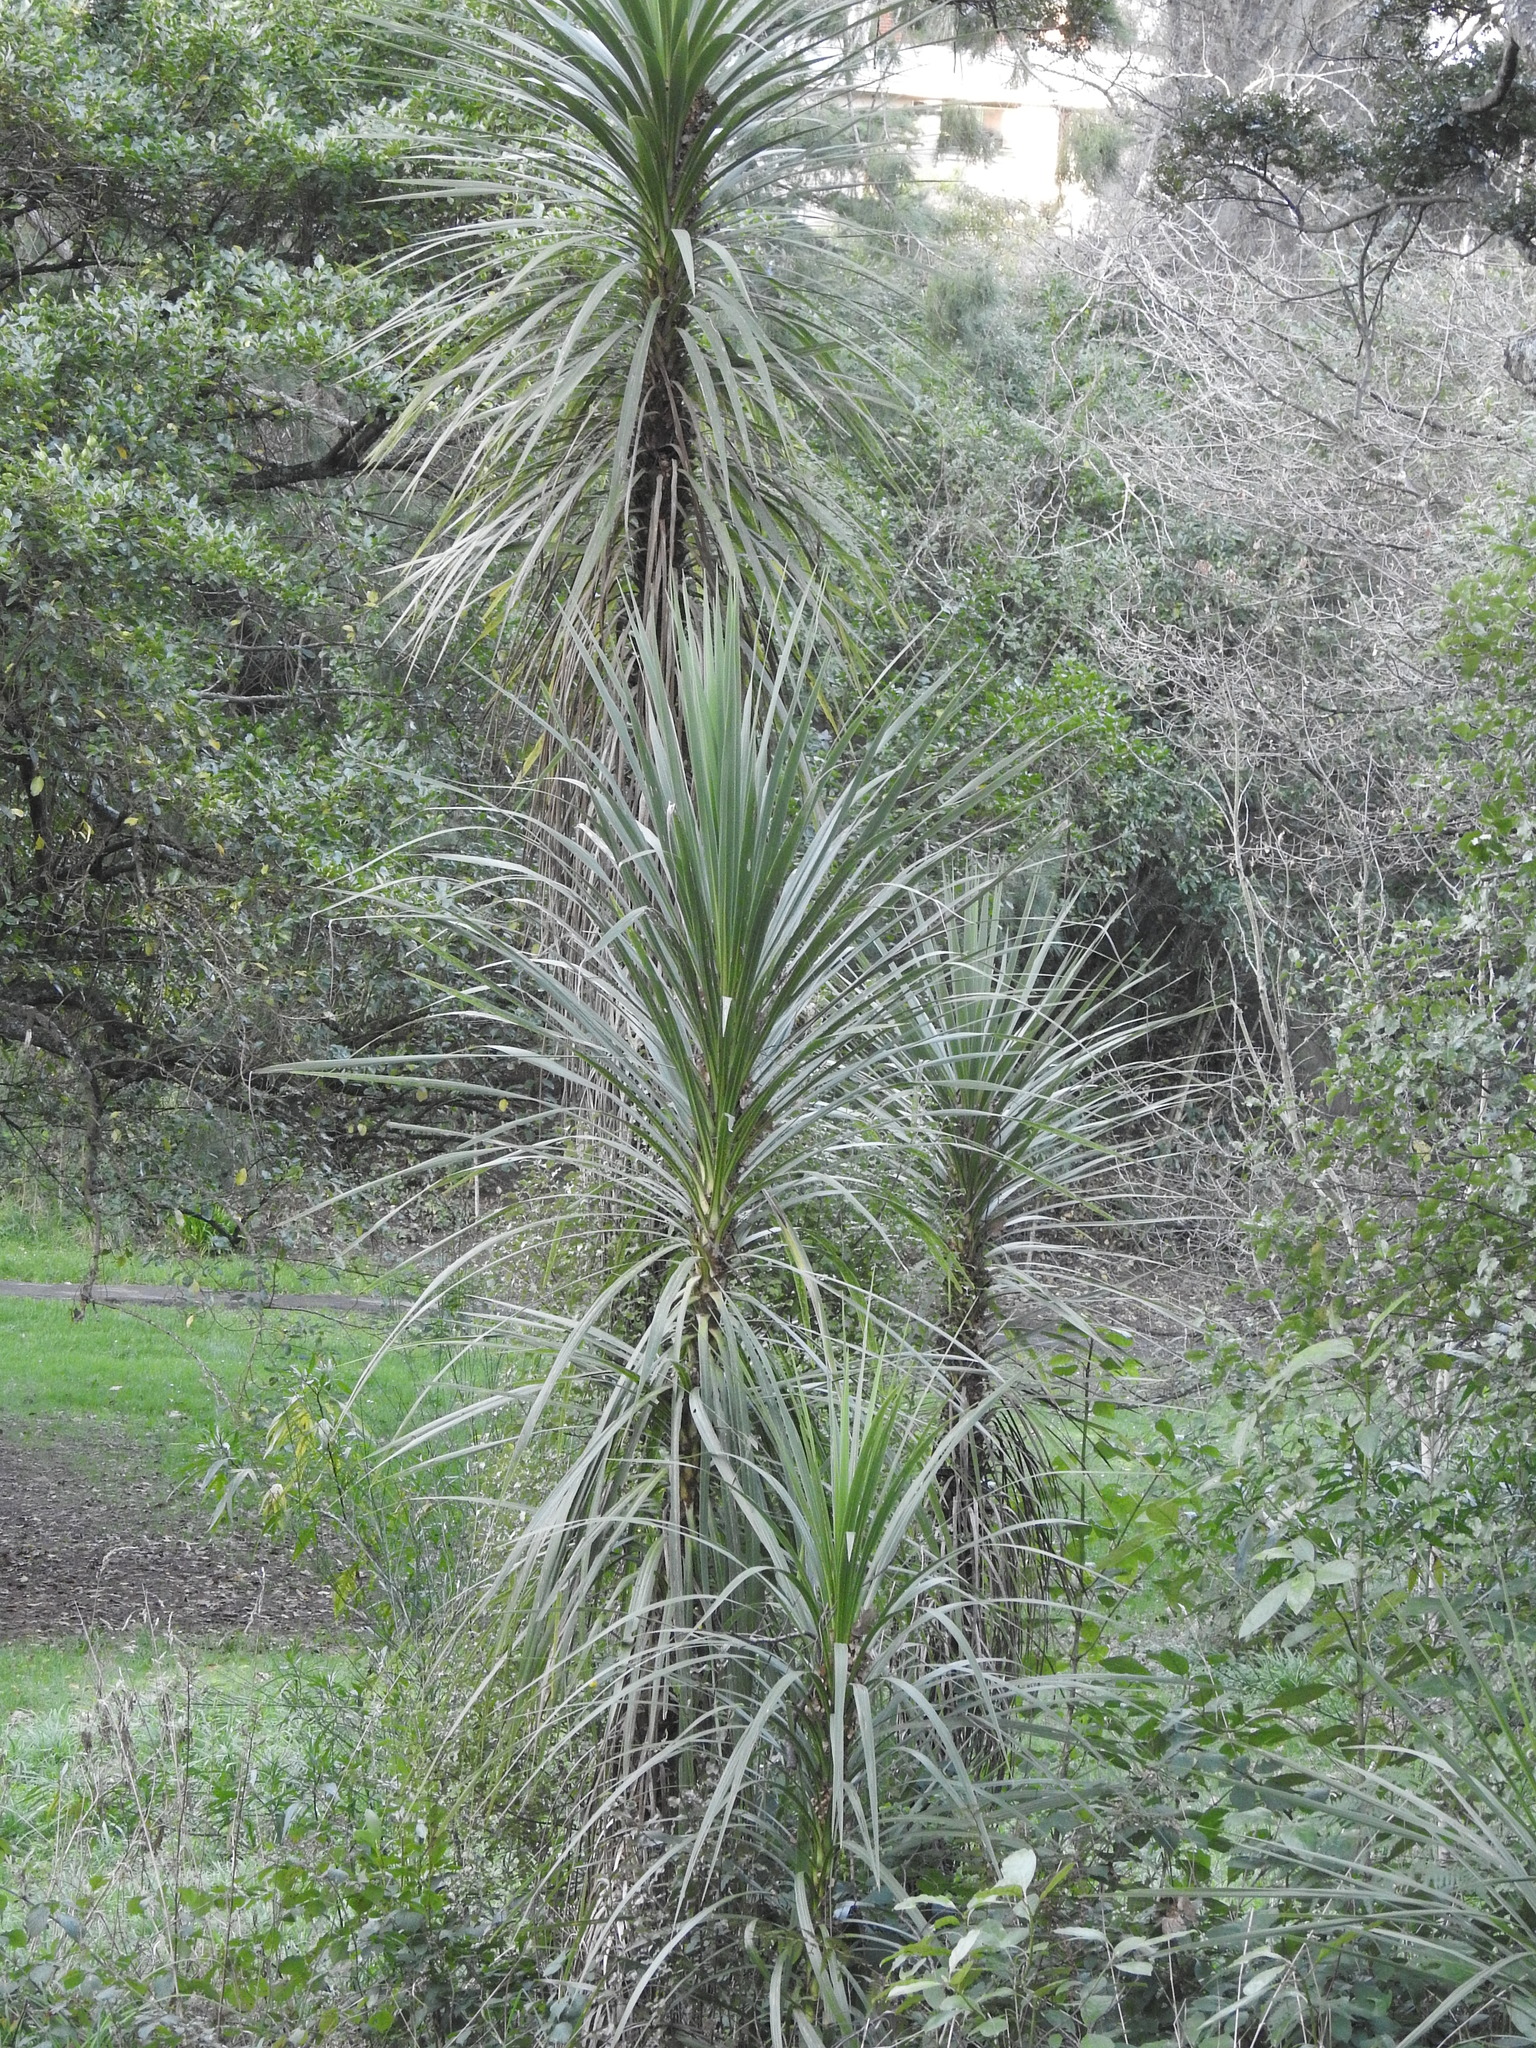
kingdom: Plantae
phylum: Tracheophyta
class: Liliopsida
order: Asparagales
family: Asparagaceae
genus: Cordyline
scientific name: Cordyline australis
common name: Cabbage-palm
